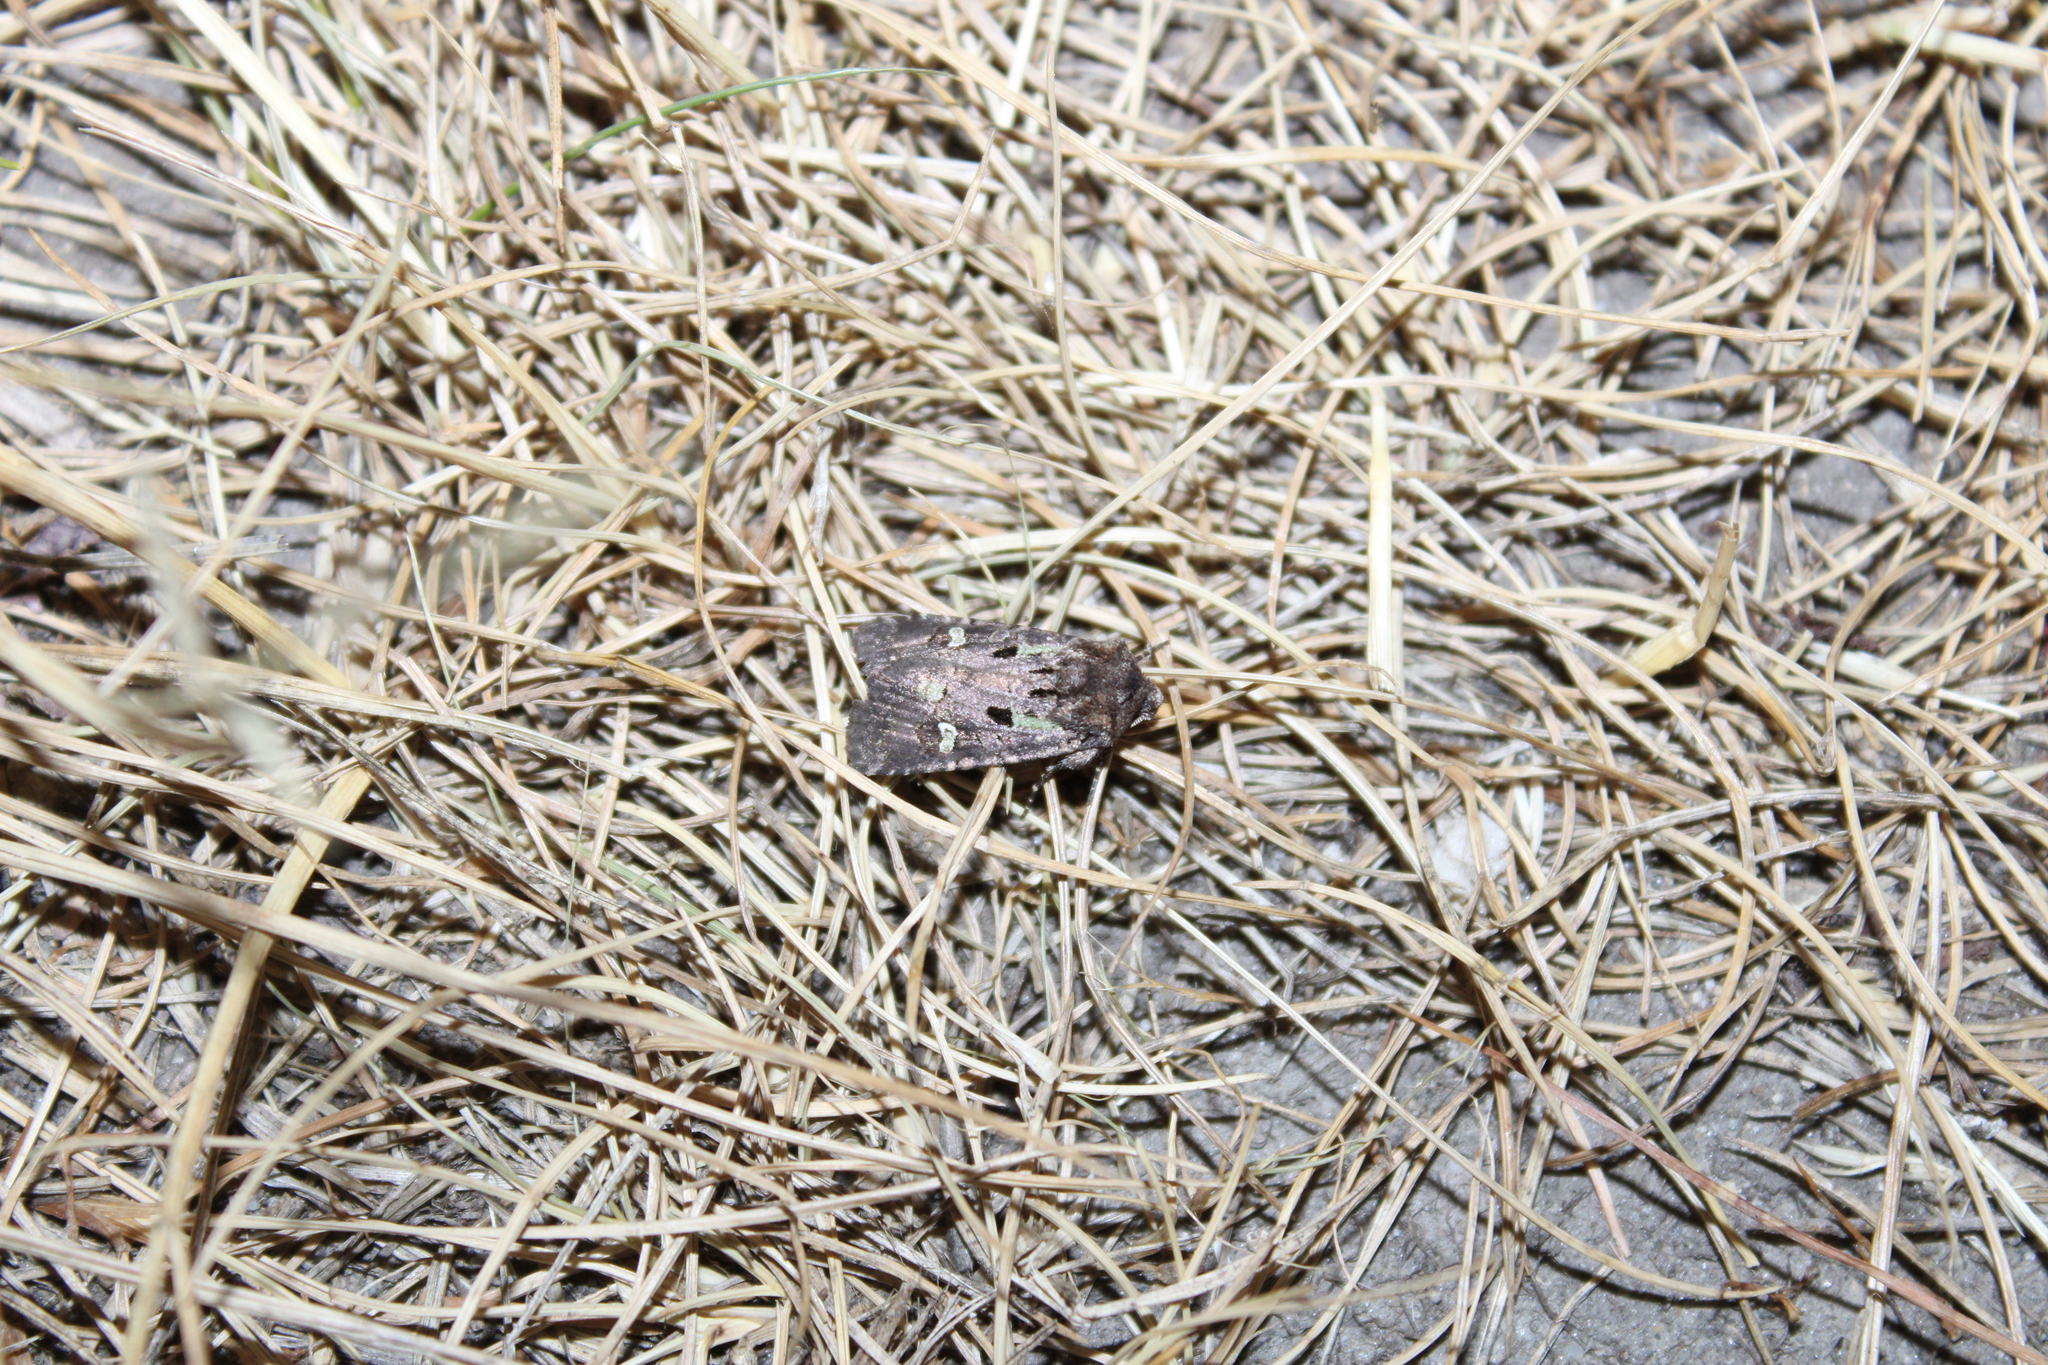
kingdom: Animalia
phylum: Arthropoda
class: Insecta
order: Lepidoptera
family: Noctuidae
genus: Lacinipolia
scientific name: Lacinipolia renigera
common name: Kidney-spotted minor
